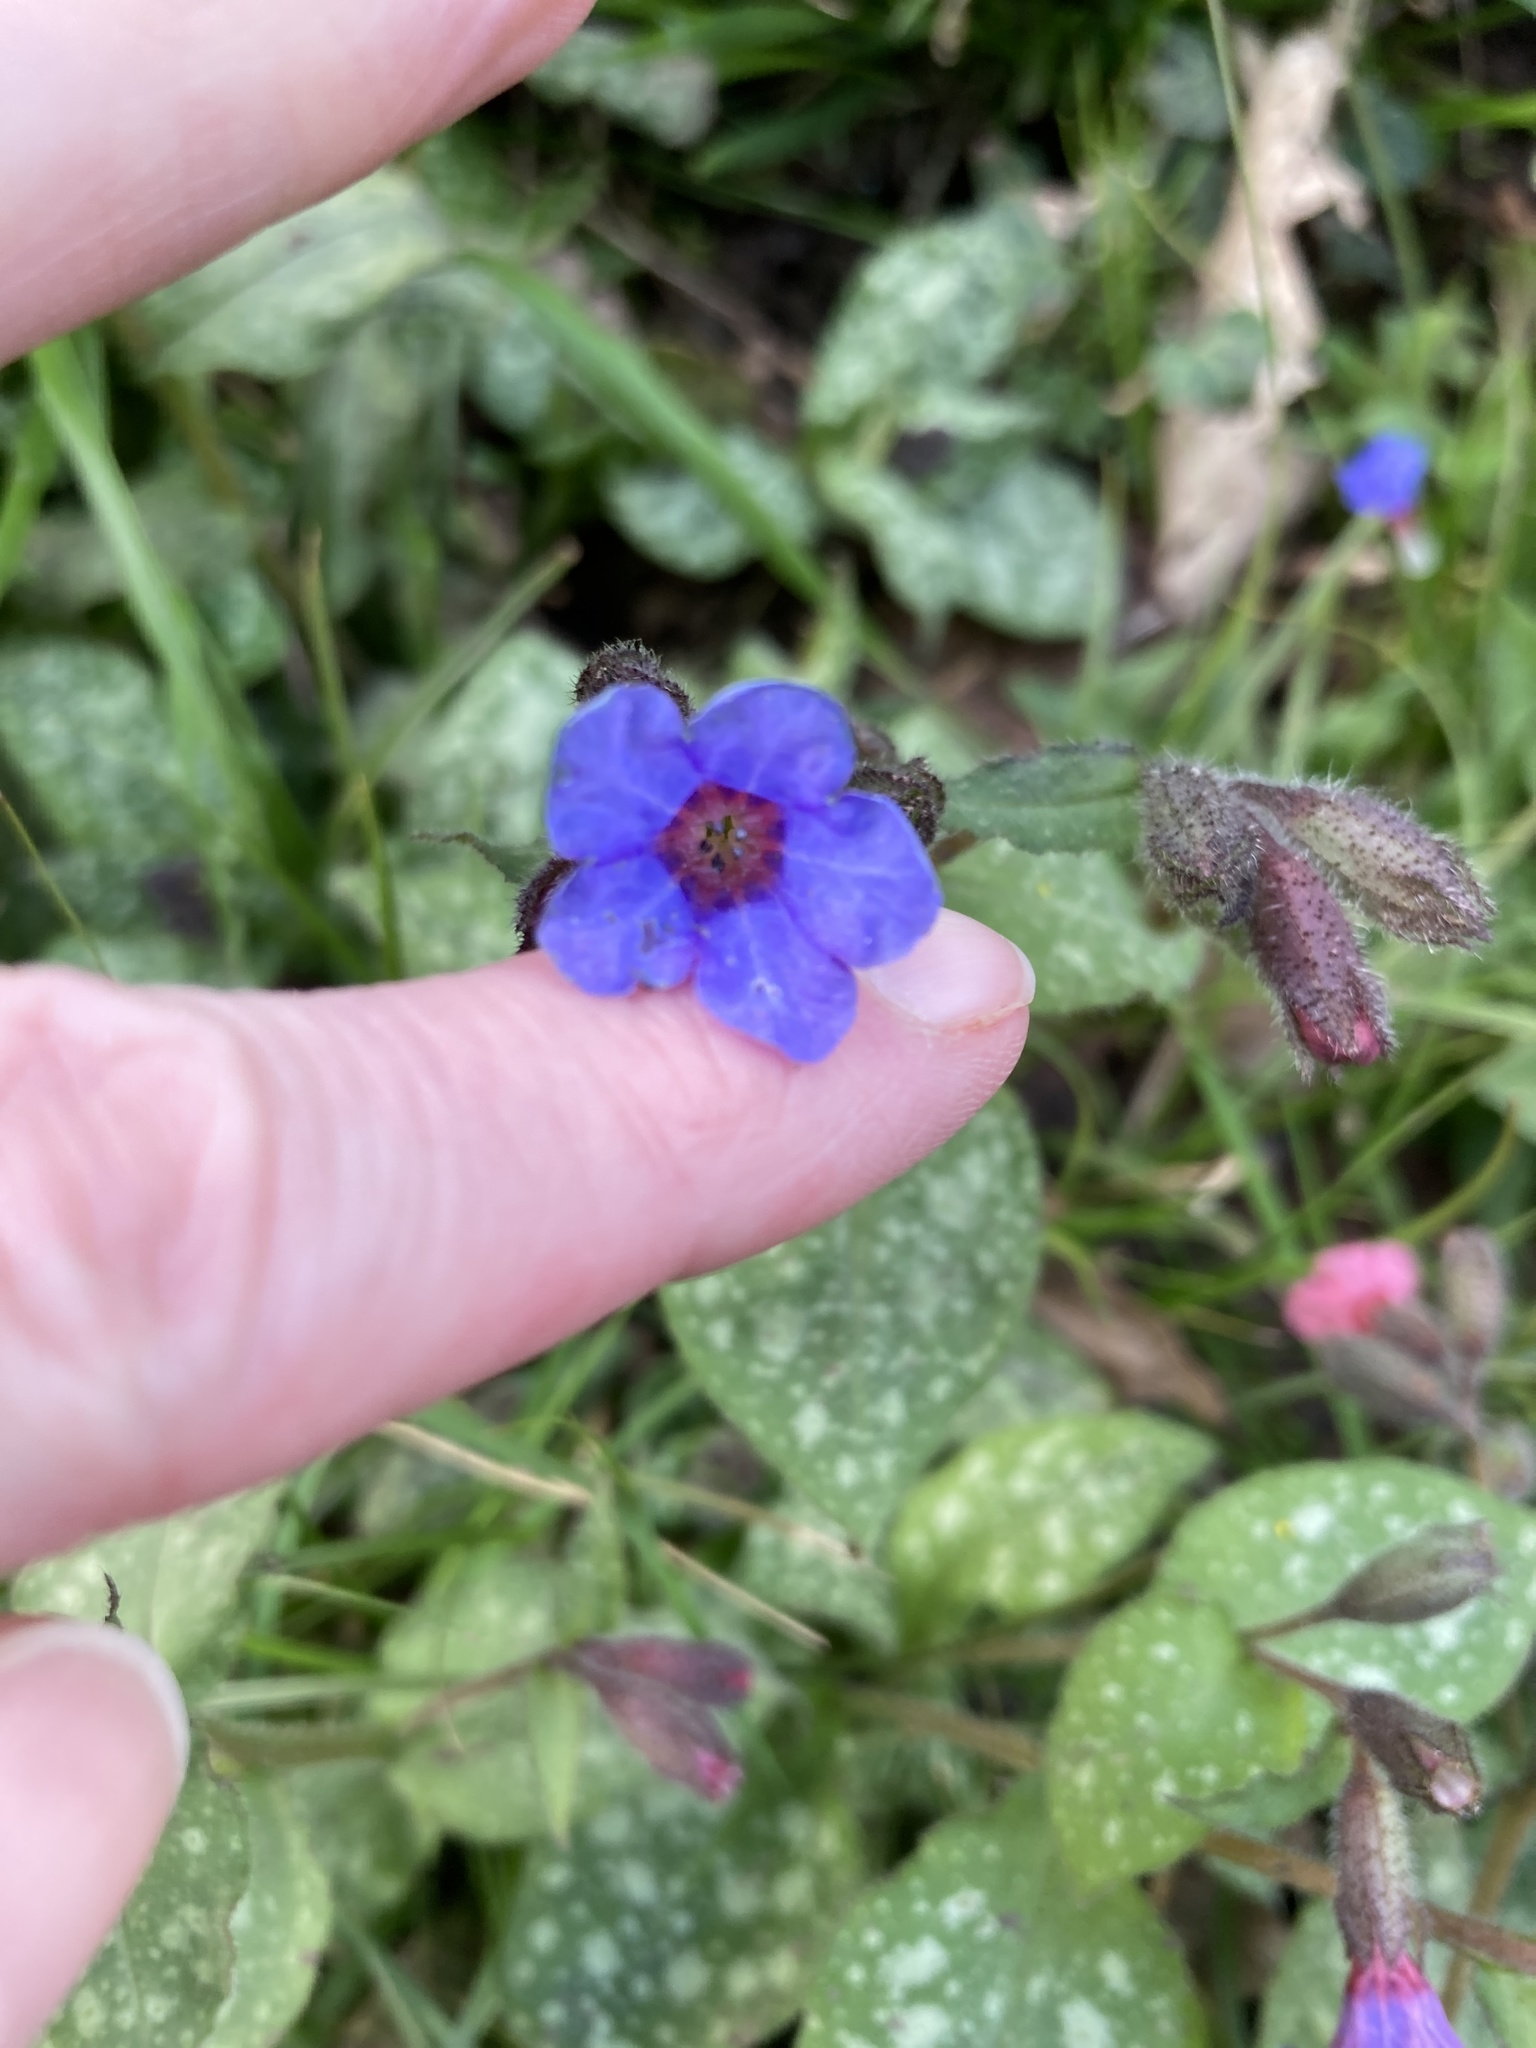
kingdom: Plantae
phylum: Tracheophyta
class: Magnoliopsida
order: Boraginales
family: Boraginaceae
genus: Pulmonaria
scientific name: Pulmonaria officinalis
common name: Lungwort
